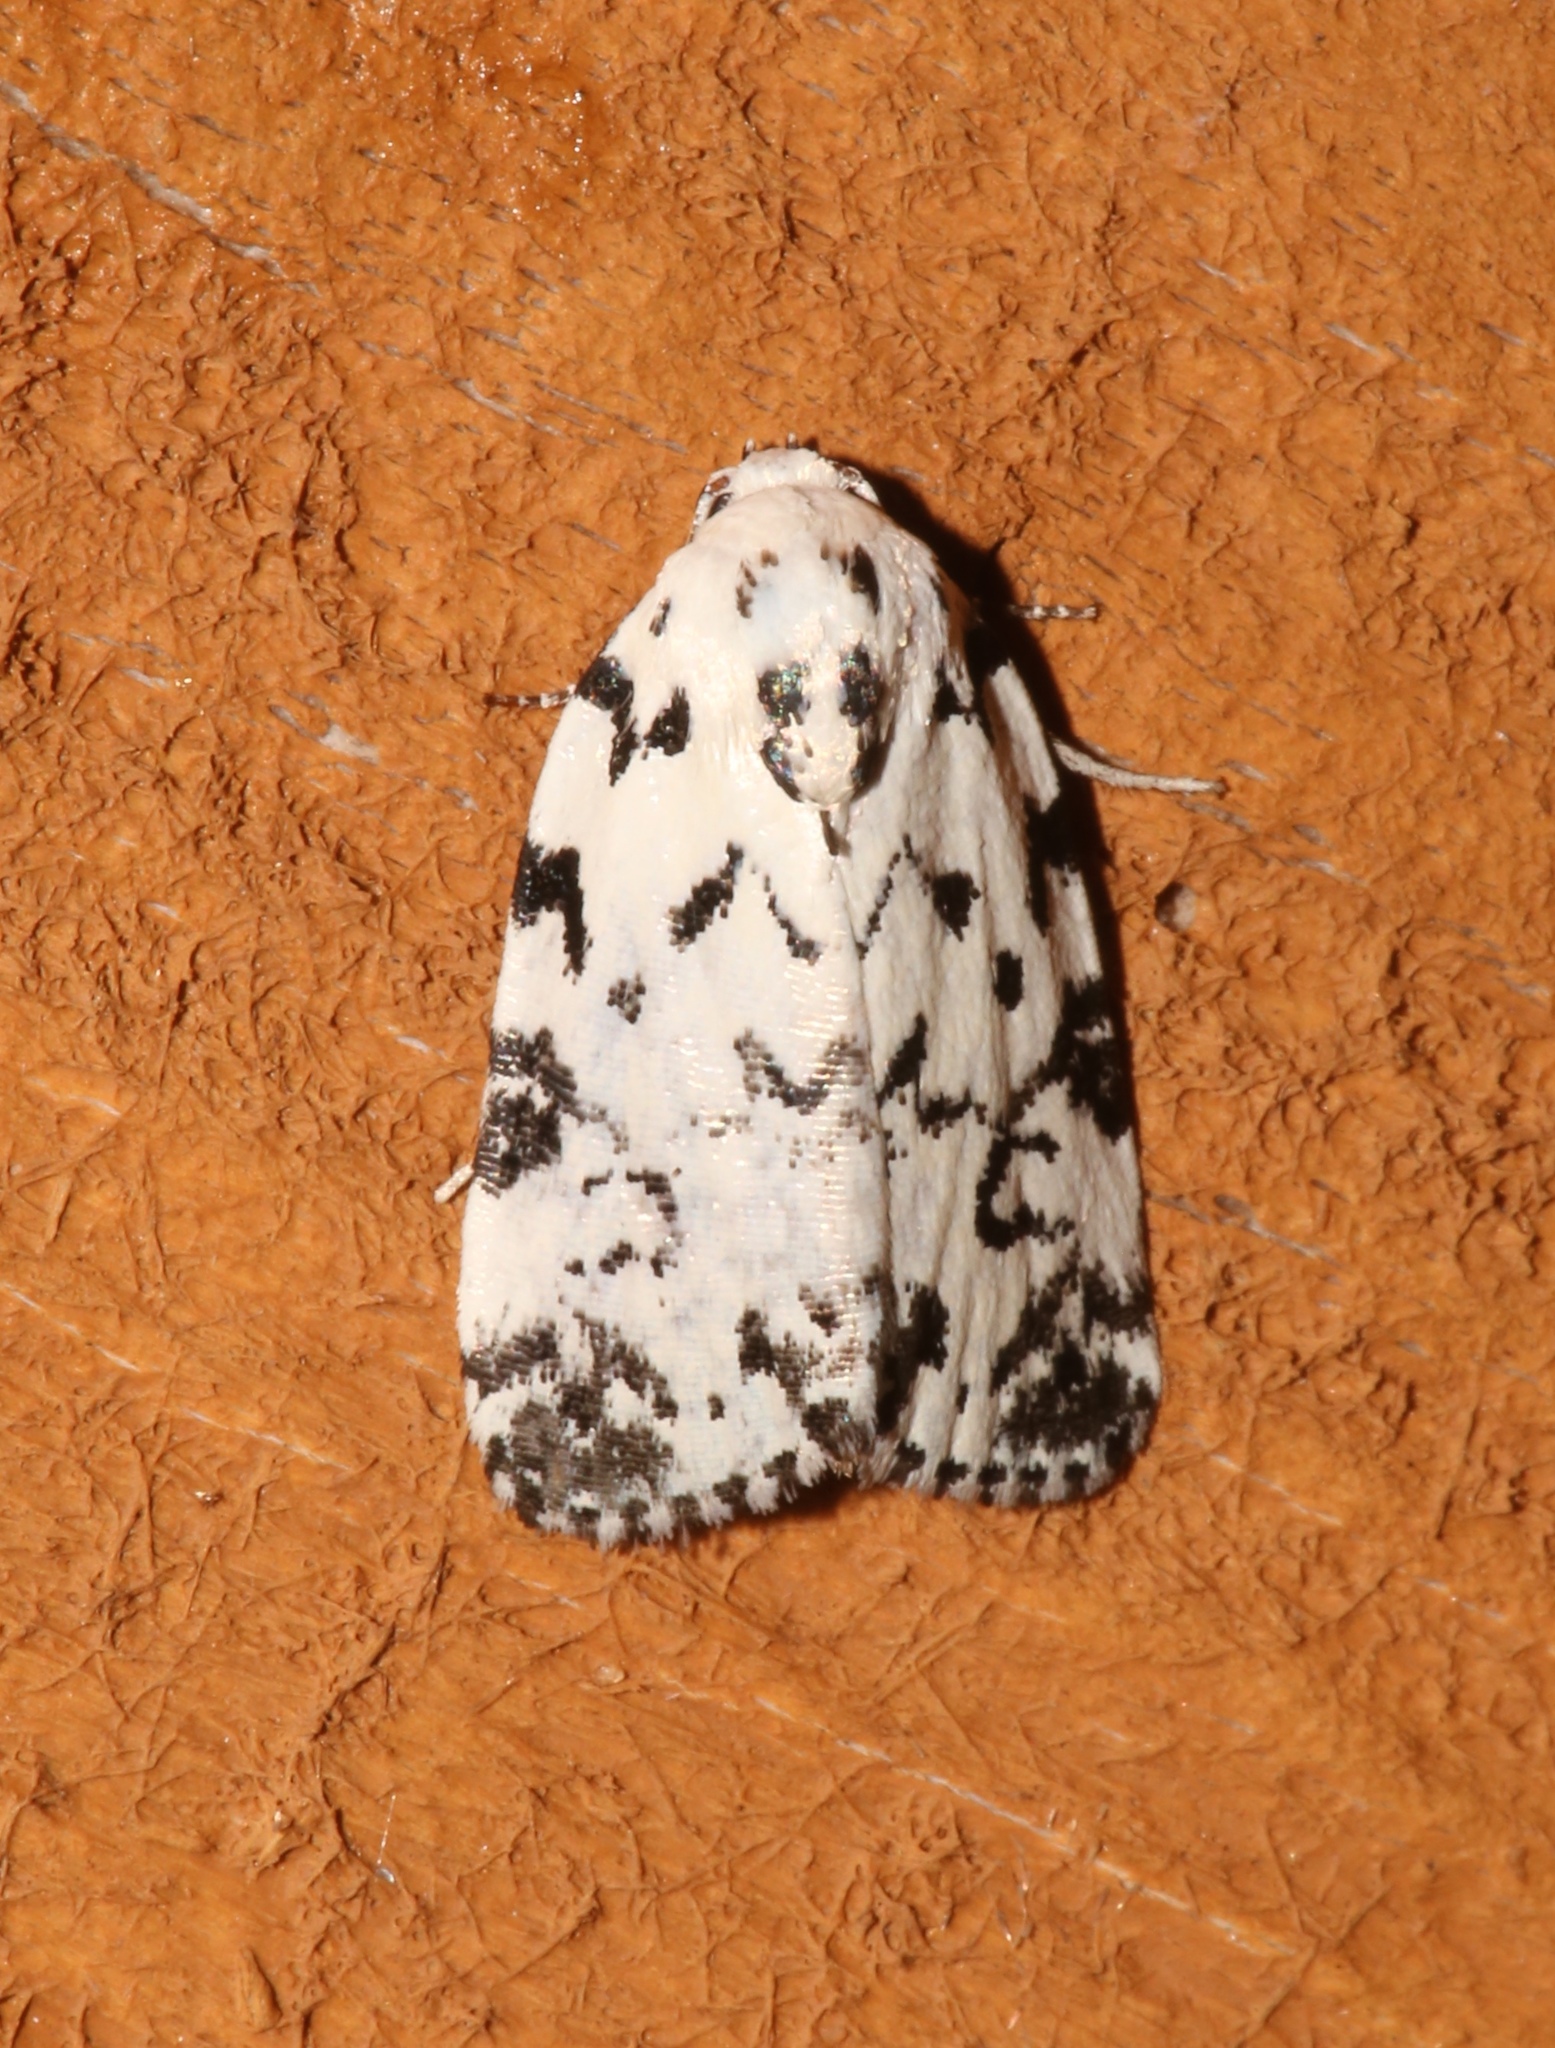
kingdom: Animalia
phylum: Arthropoda
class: Insecta
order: Lepidoptera
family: Noctuidae
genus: Polygrammate
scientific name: Polygrammate hebraeicum
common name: Hebrew moth
